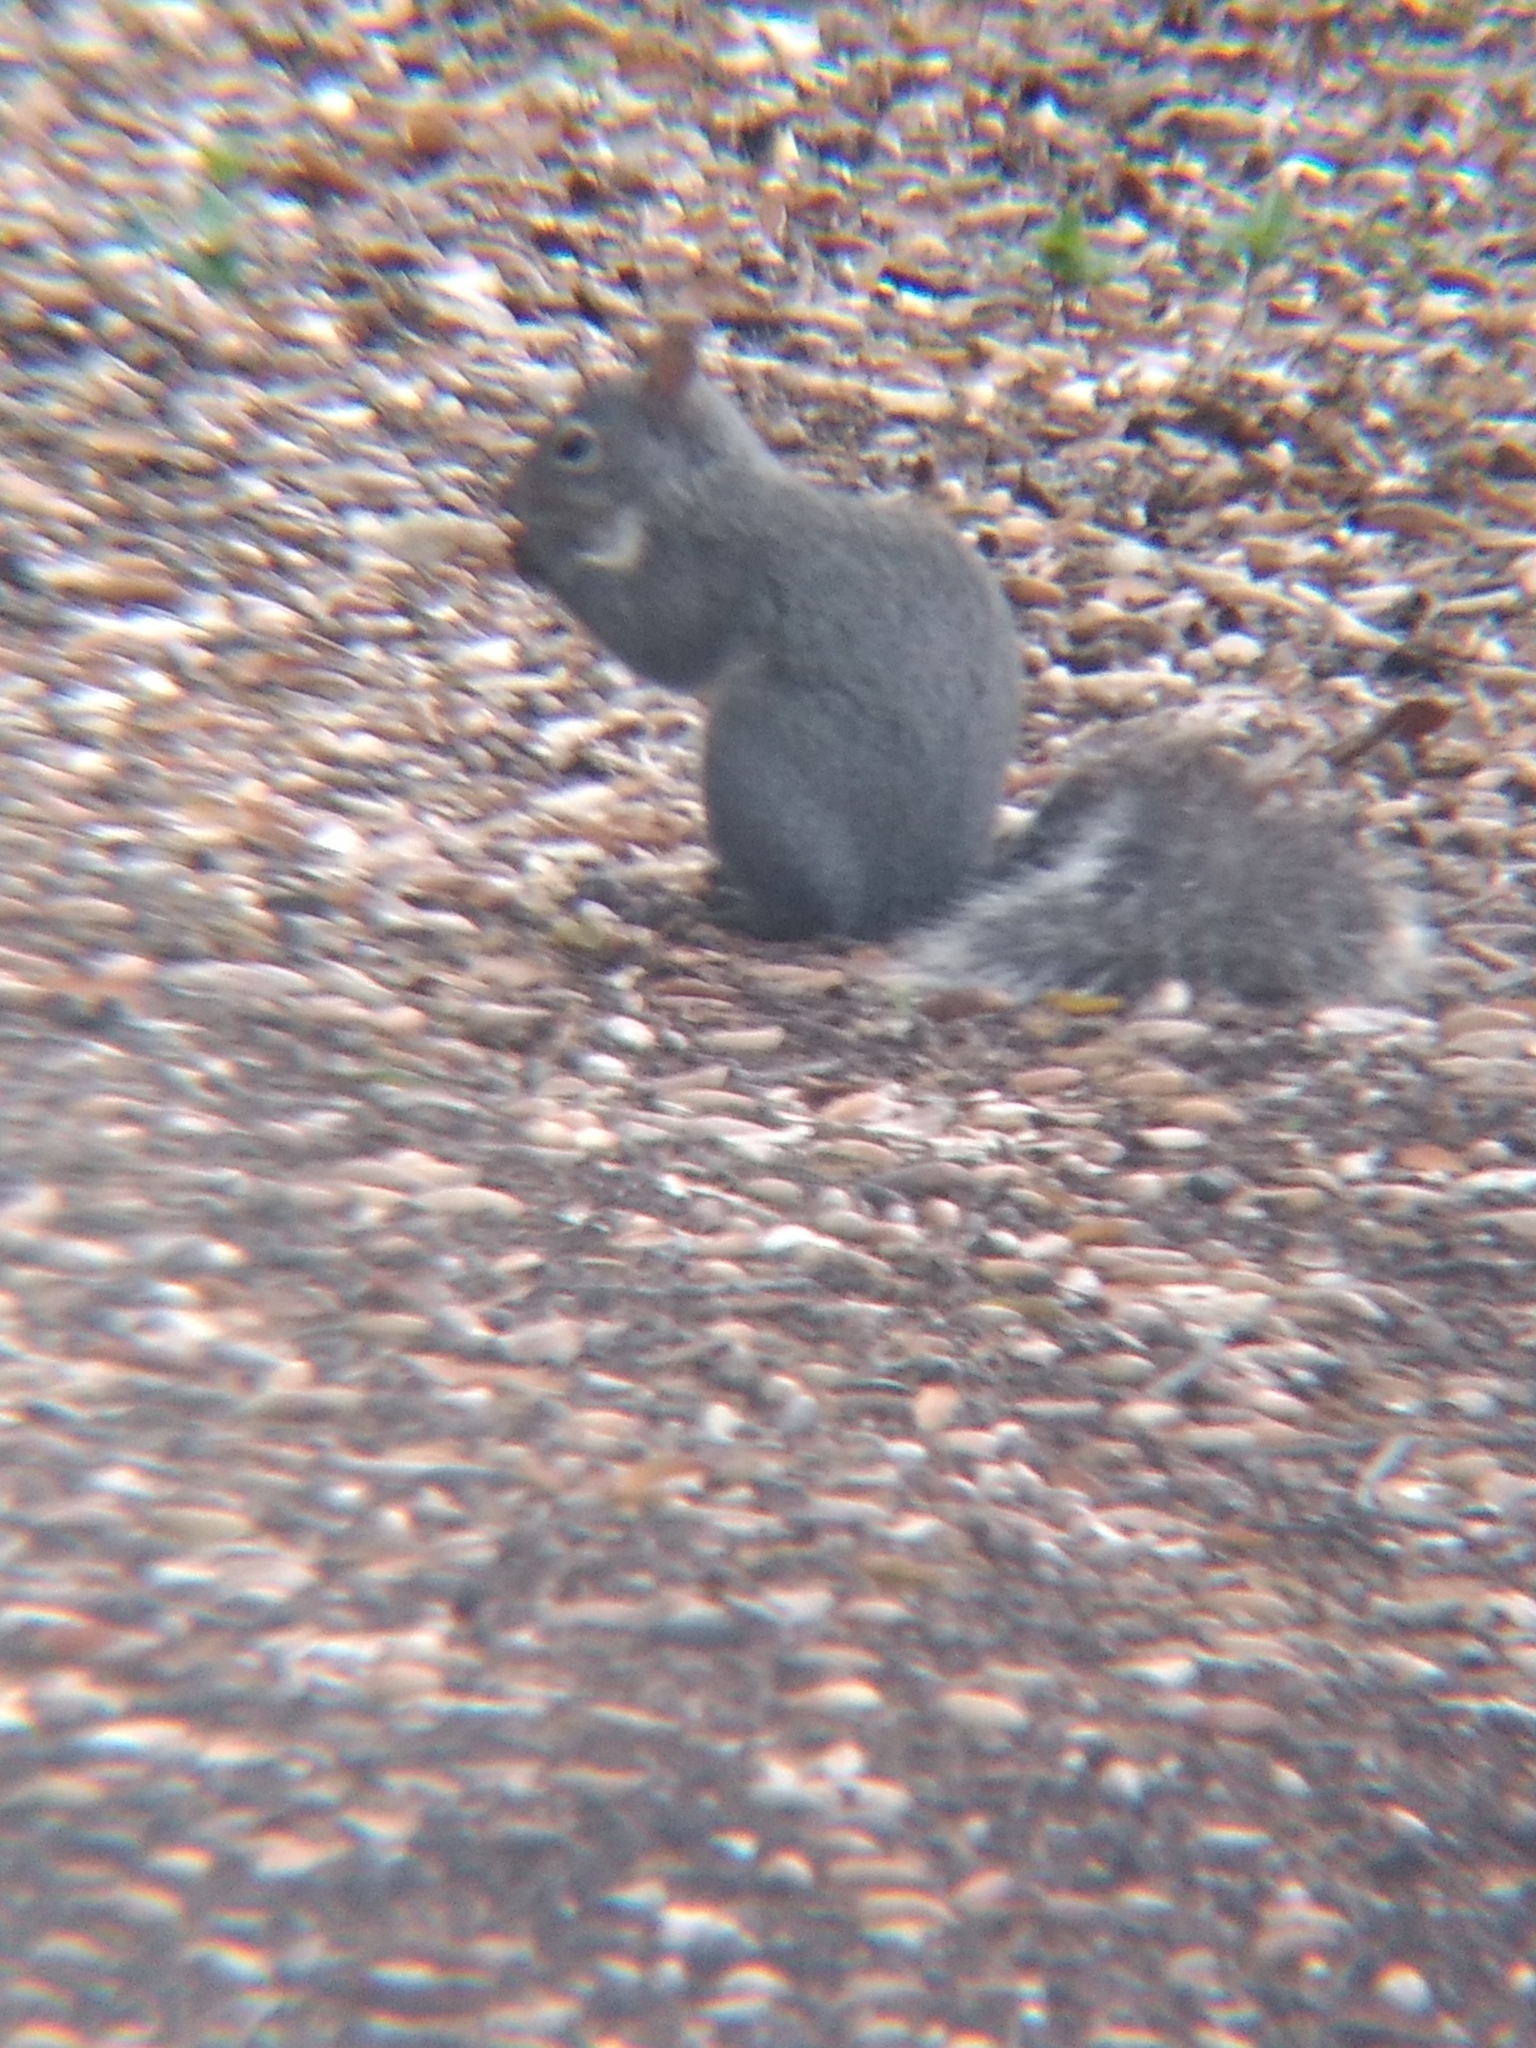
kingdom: Animalia
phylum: Chordata
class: Mammalia
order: Rodentia
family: Sciuridae
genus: Sciurus
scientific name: Sciurus griseus
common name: Western gray squirrel
